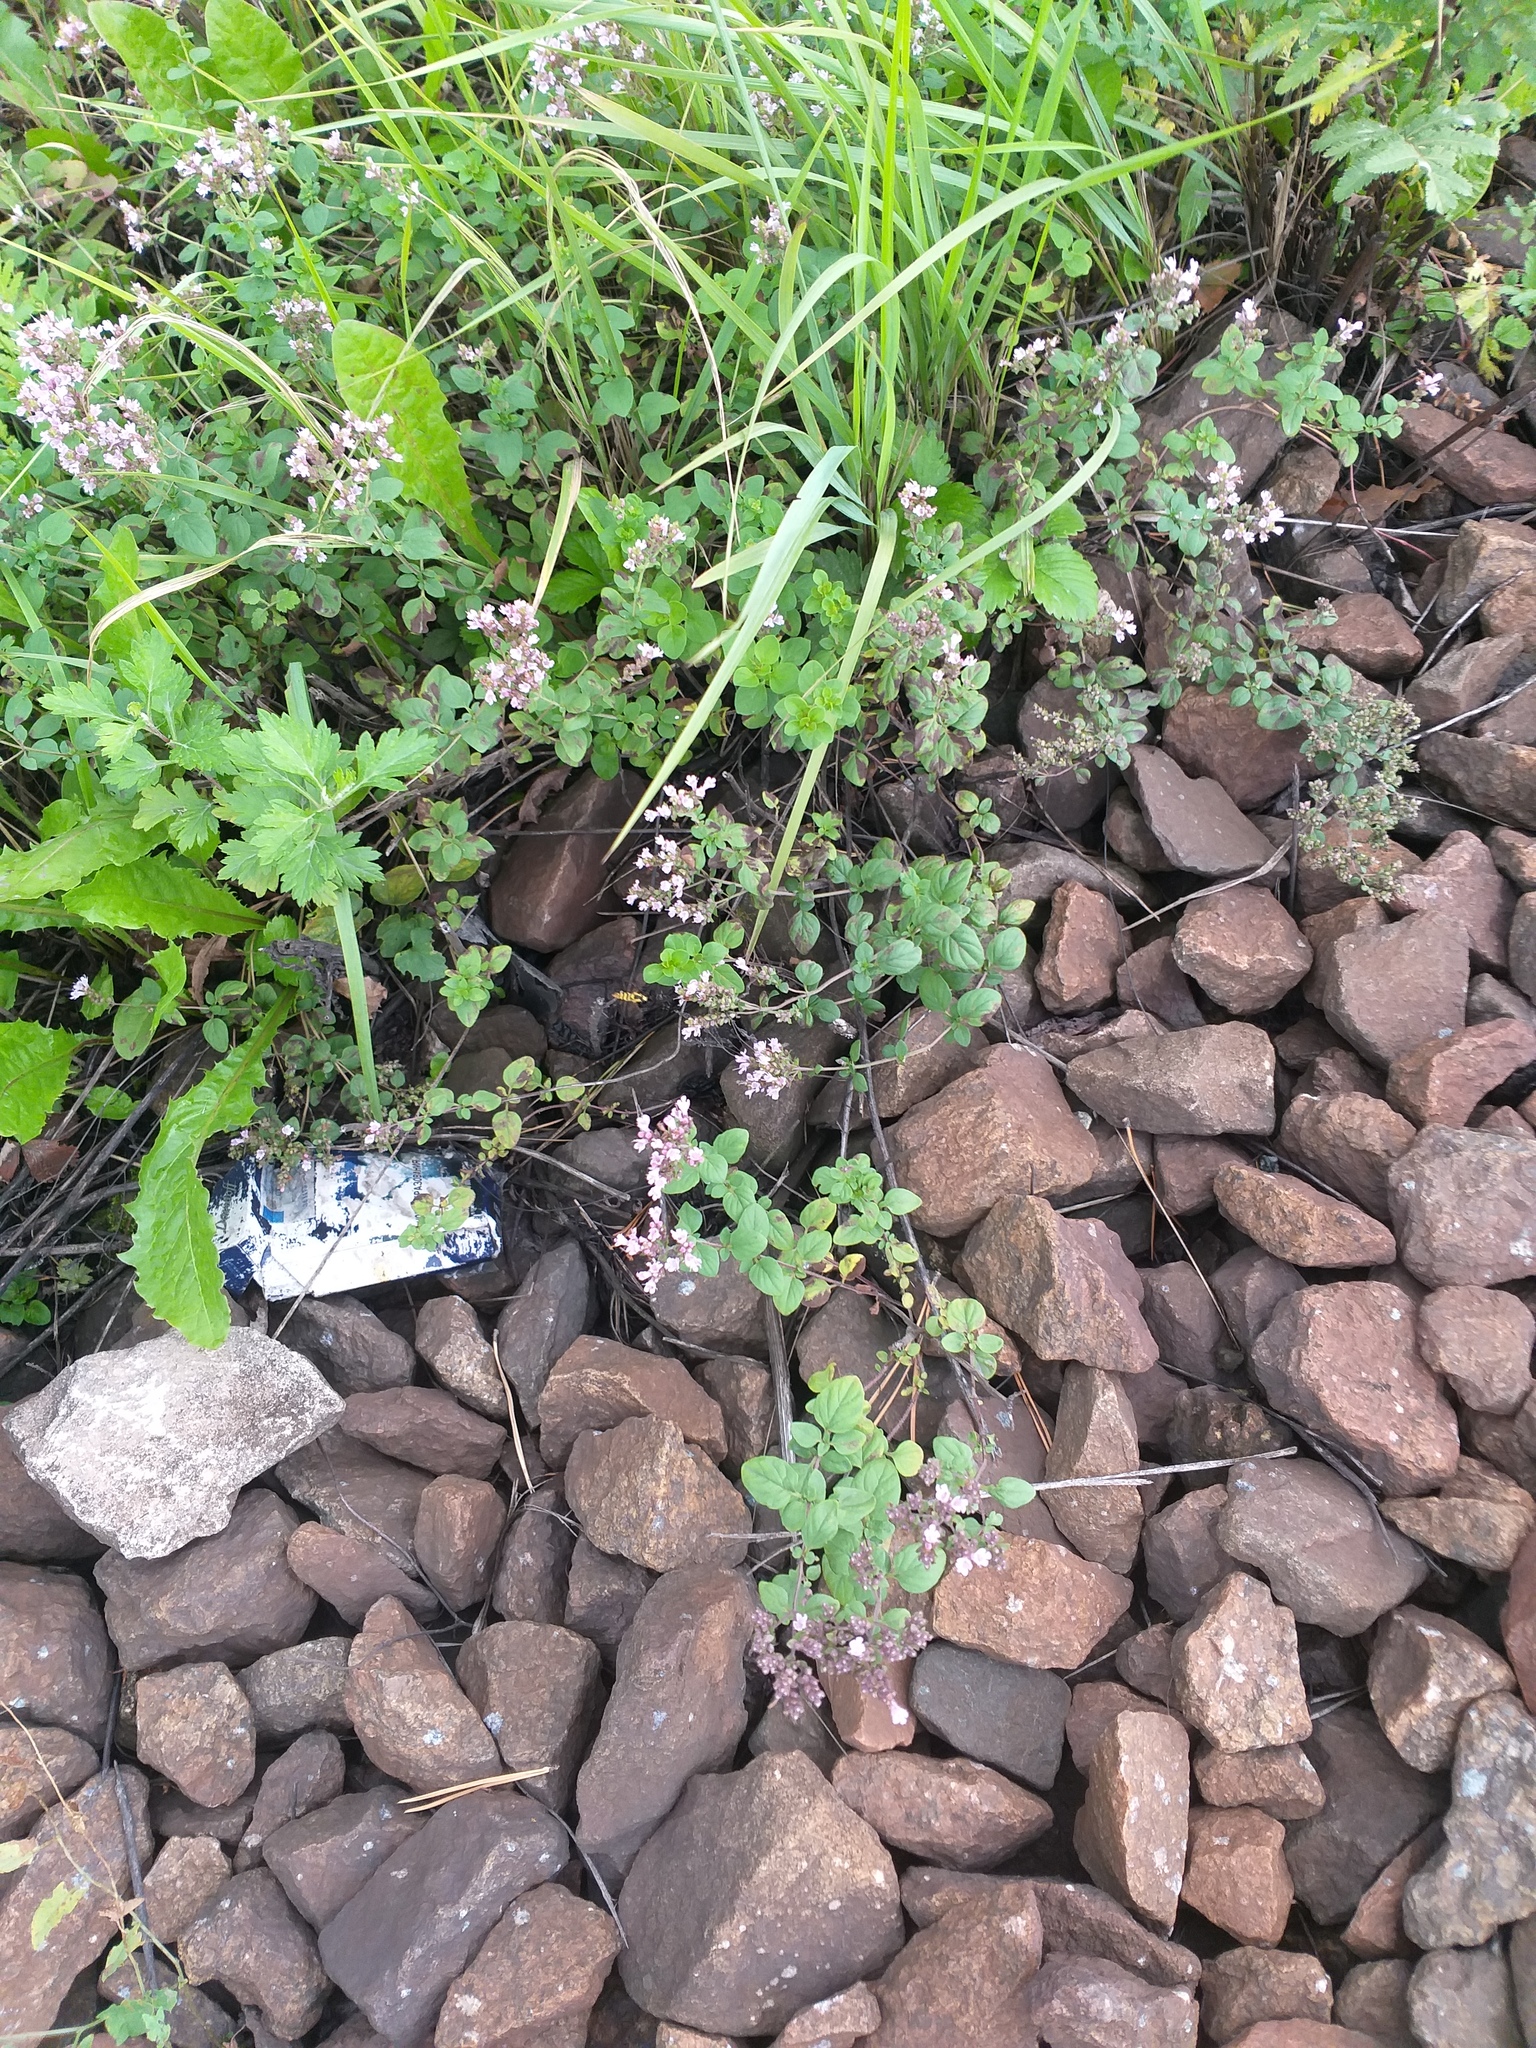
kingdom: Plantae
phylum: Tracheophyta
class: Magnoliopsida
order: Lamiales
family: Lamiaceae
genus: Origanum
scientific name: Origanum vulgare
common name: Wild marjoram
